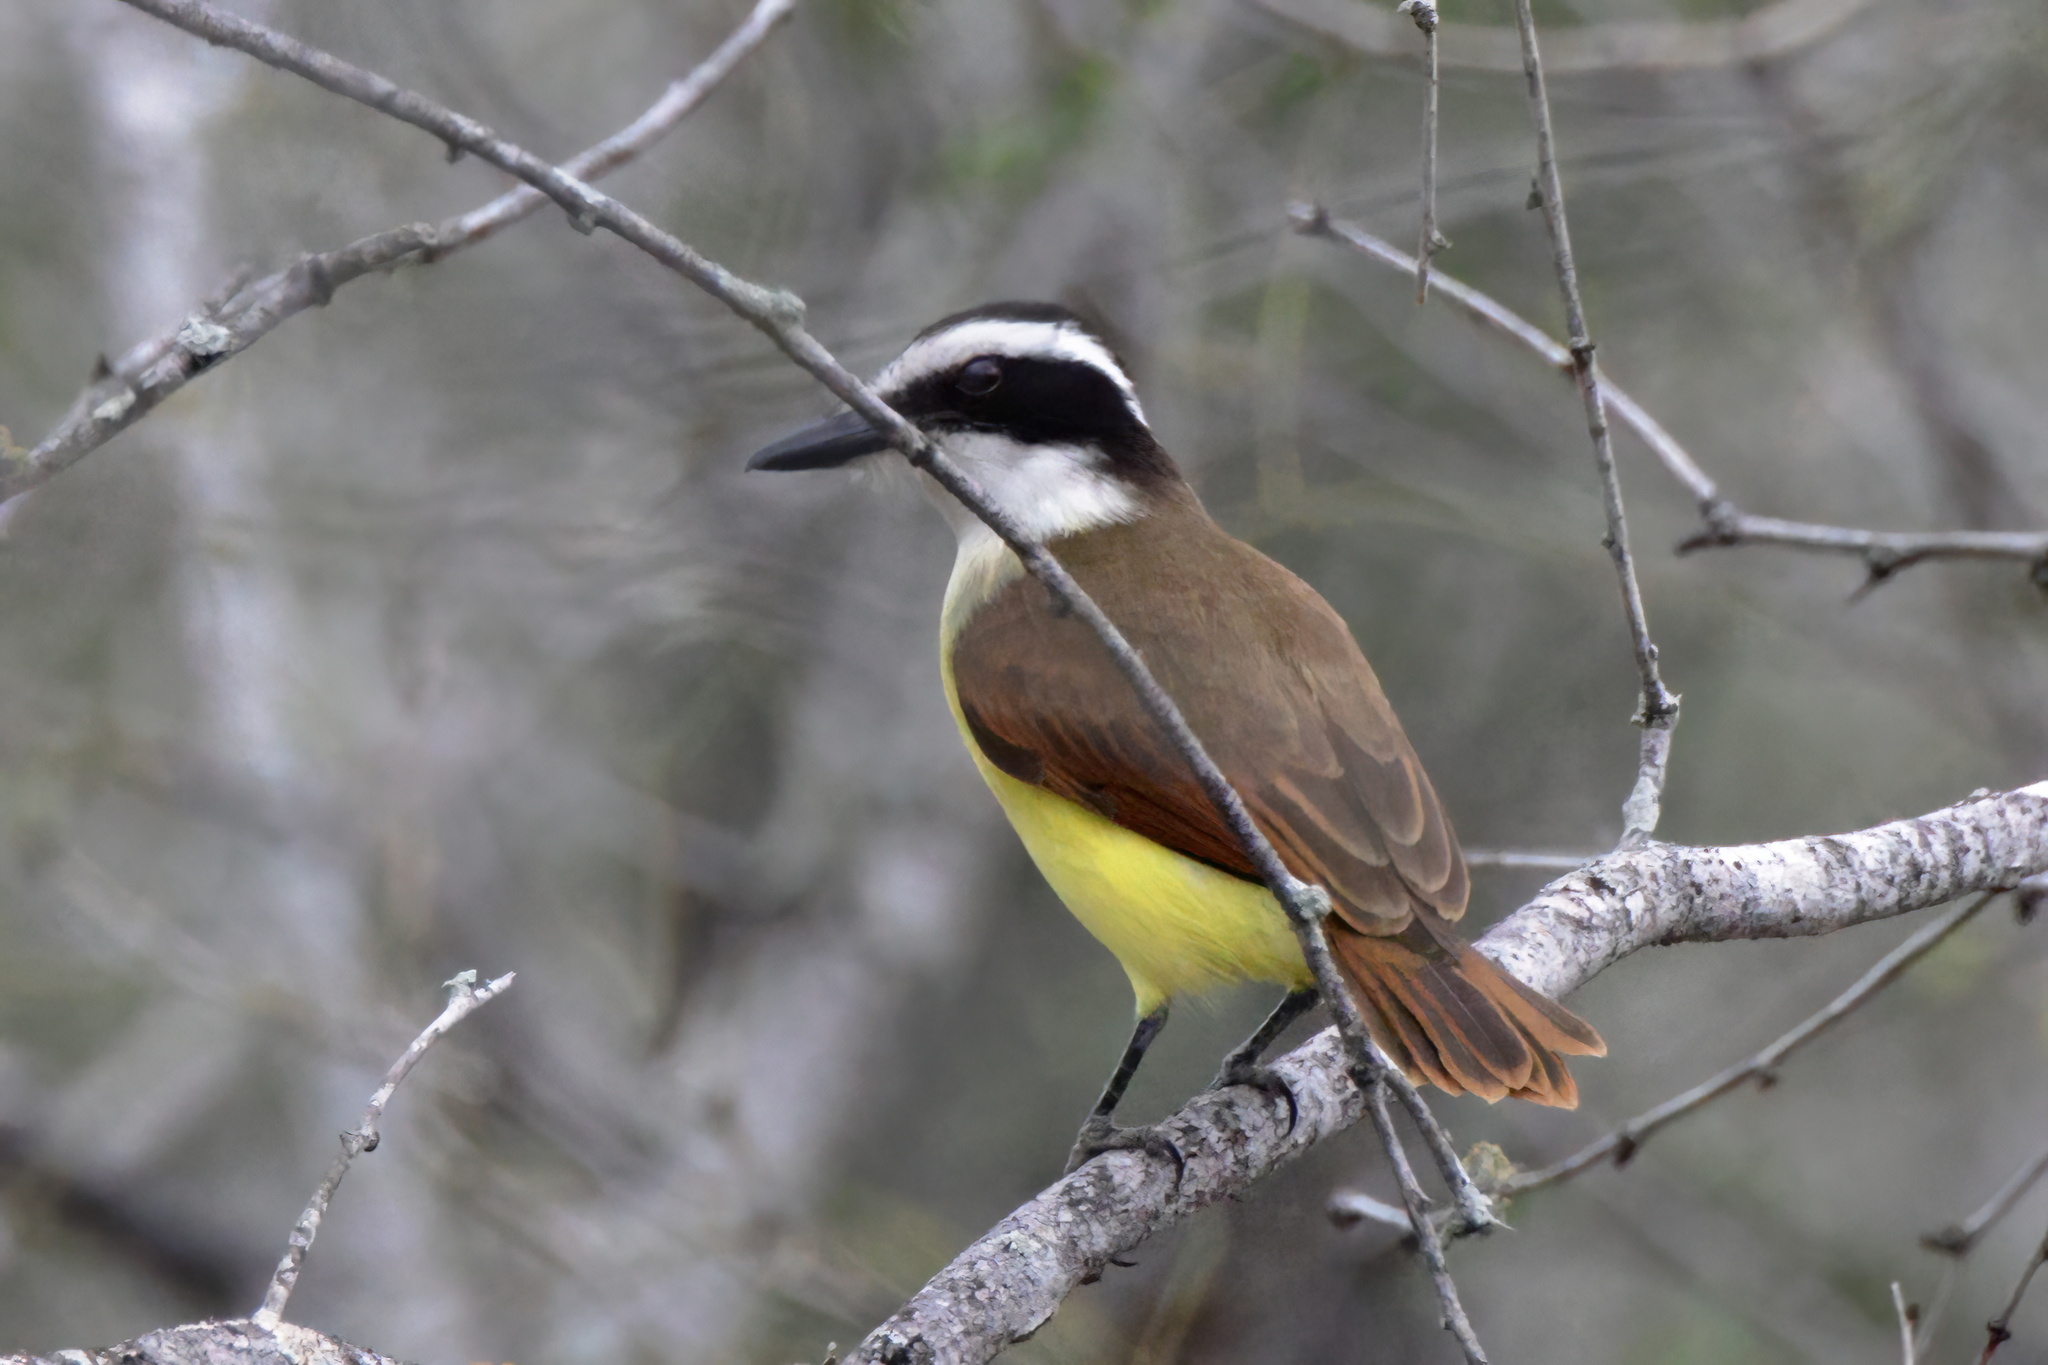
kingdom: Animalia
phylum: Chordata
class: Aves
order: Passeriformes
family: Tyrannidae
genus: Pitangus
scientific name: Pitangus sulphuratus
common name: Great kiskadee
